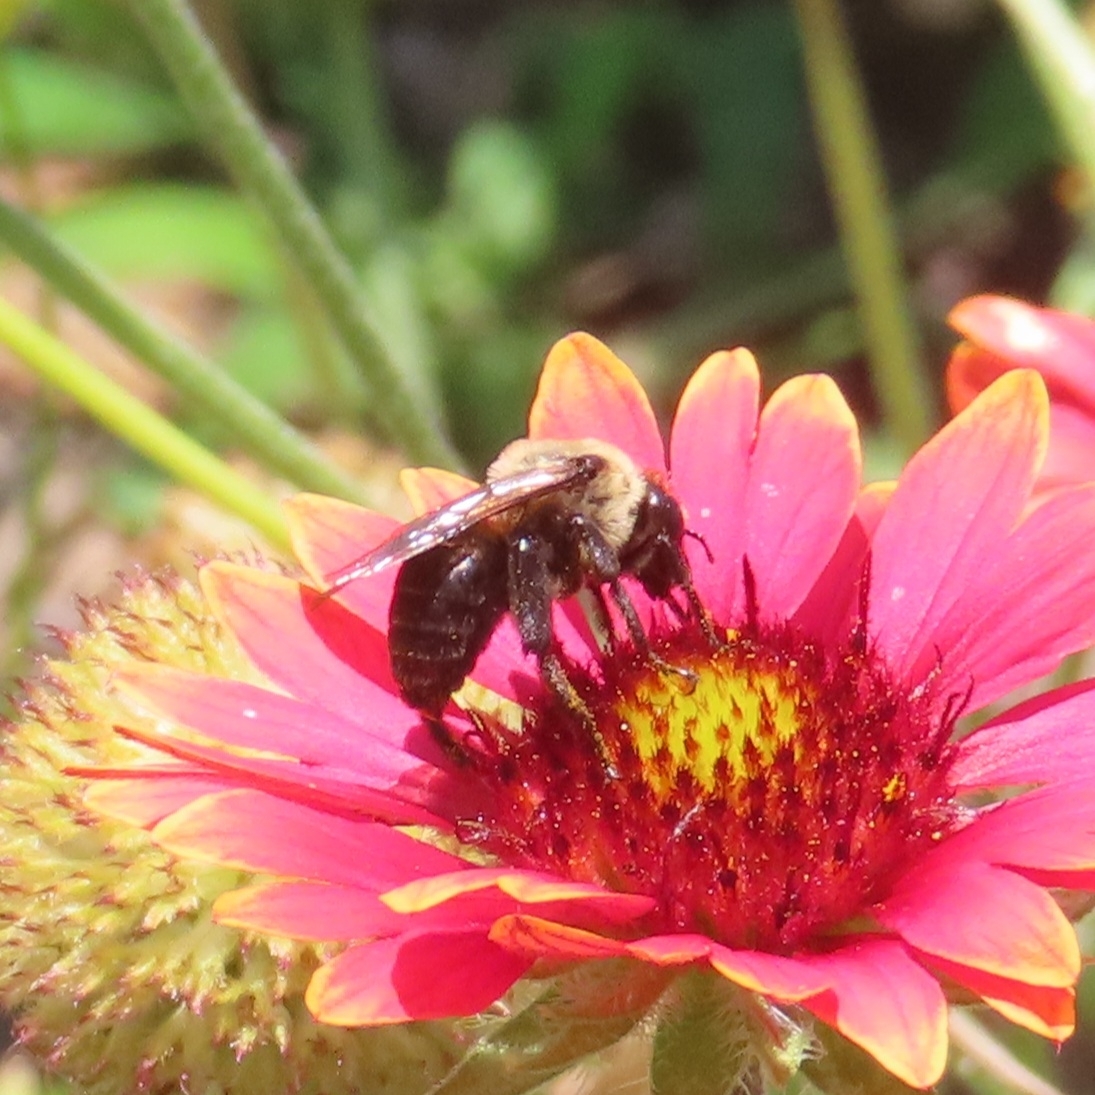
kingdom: Animalia
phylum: Arthropoda
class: Insecta
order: Hymenoptera
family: Apidae
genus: Ptilothrix
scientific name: Ptilothrix bombiformis
